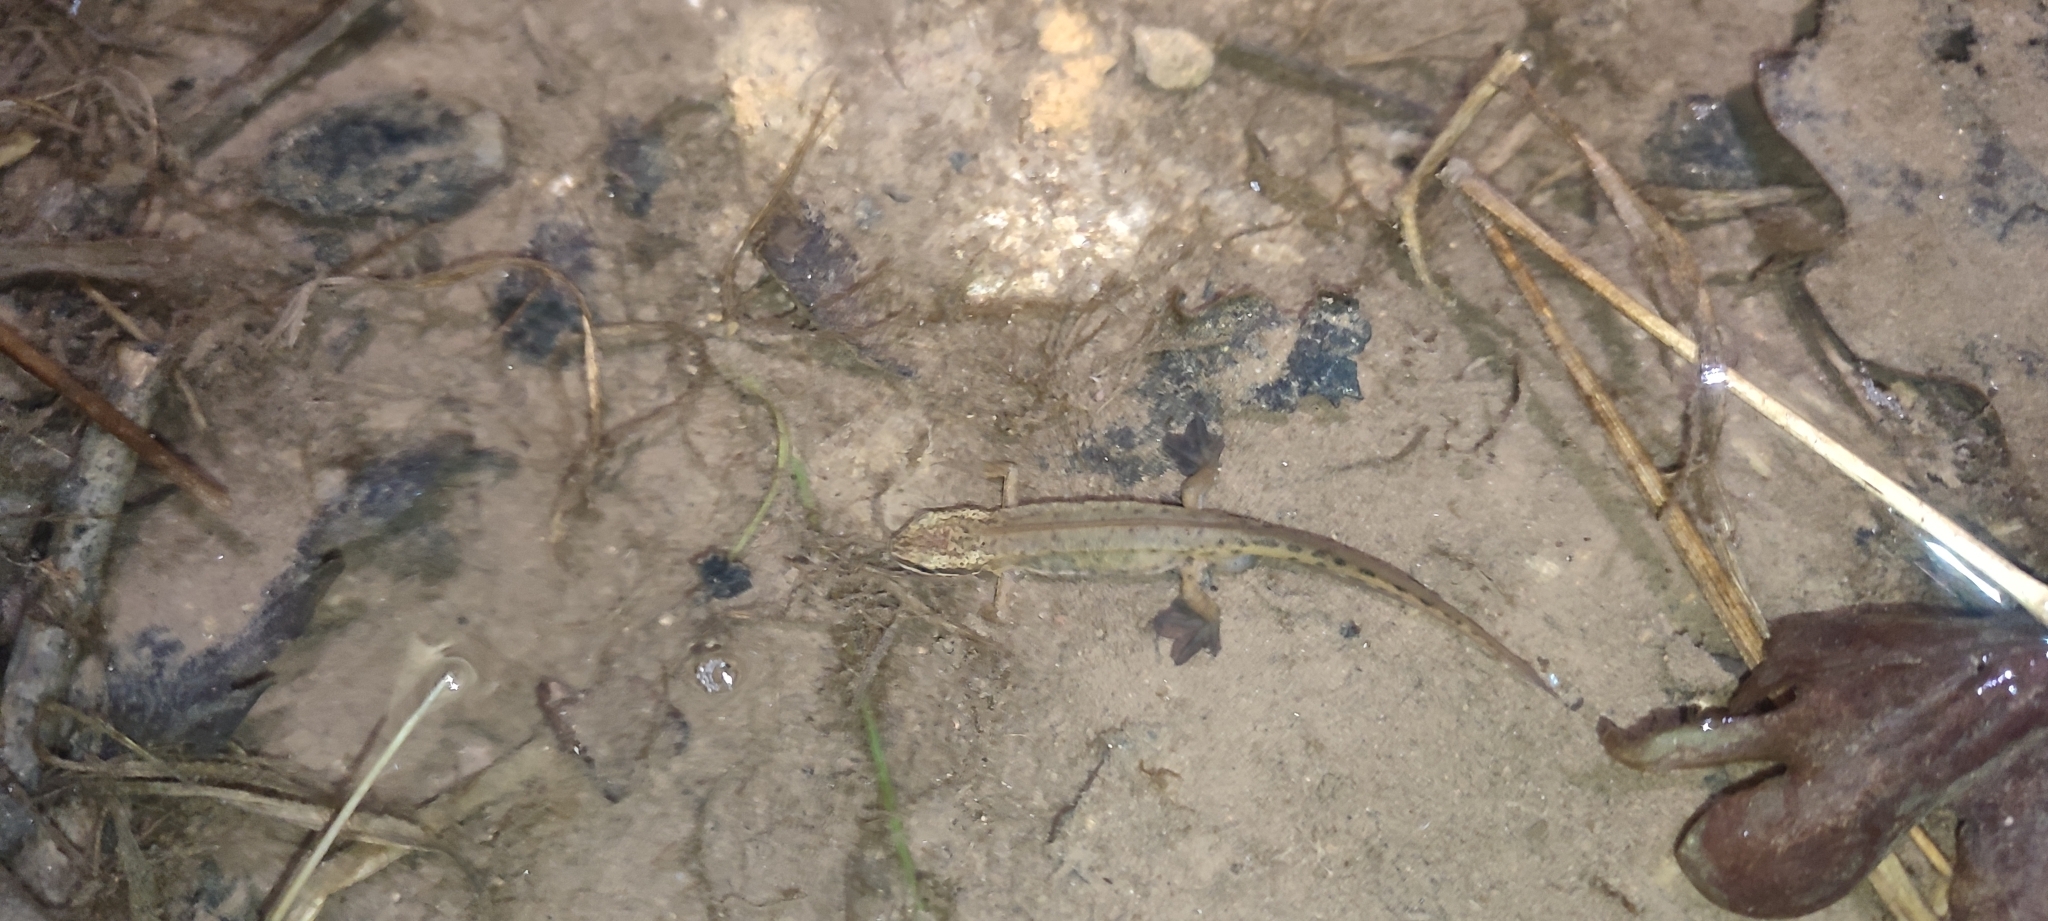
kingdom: Animalia
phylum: Chordata
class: Amphibia
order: Caudata
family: Salamandridae
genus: Lissotriton
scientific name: Lissotriton helveticus
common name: Palmate newt
